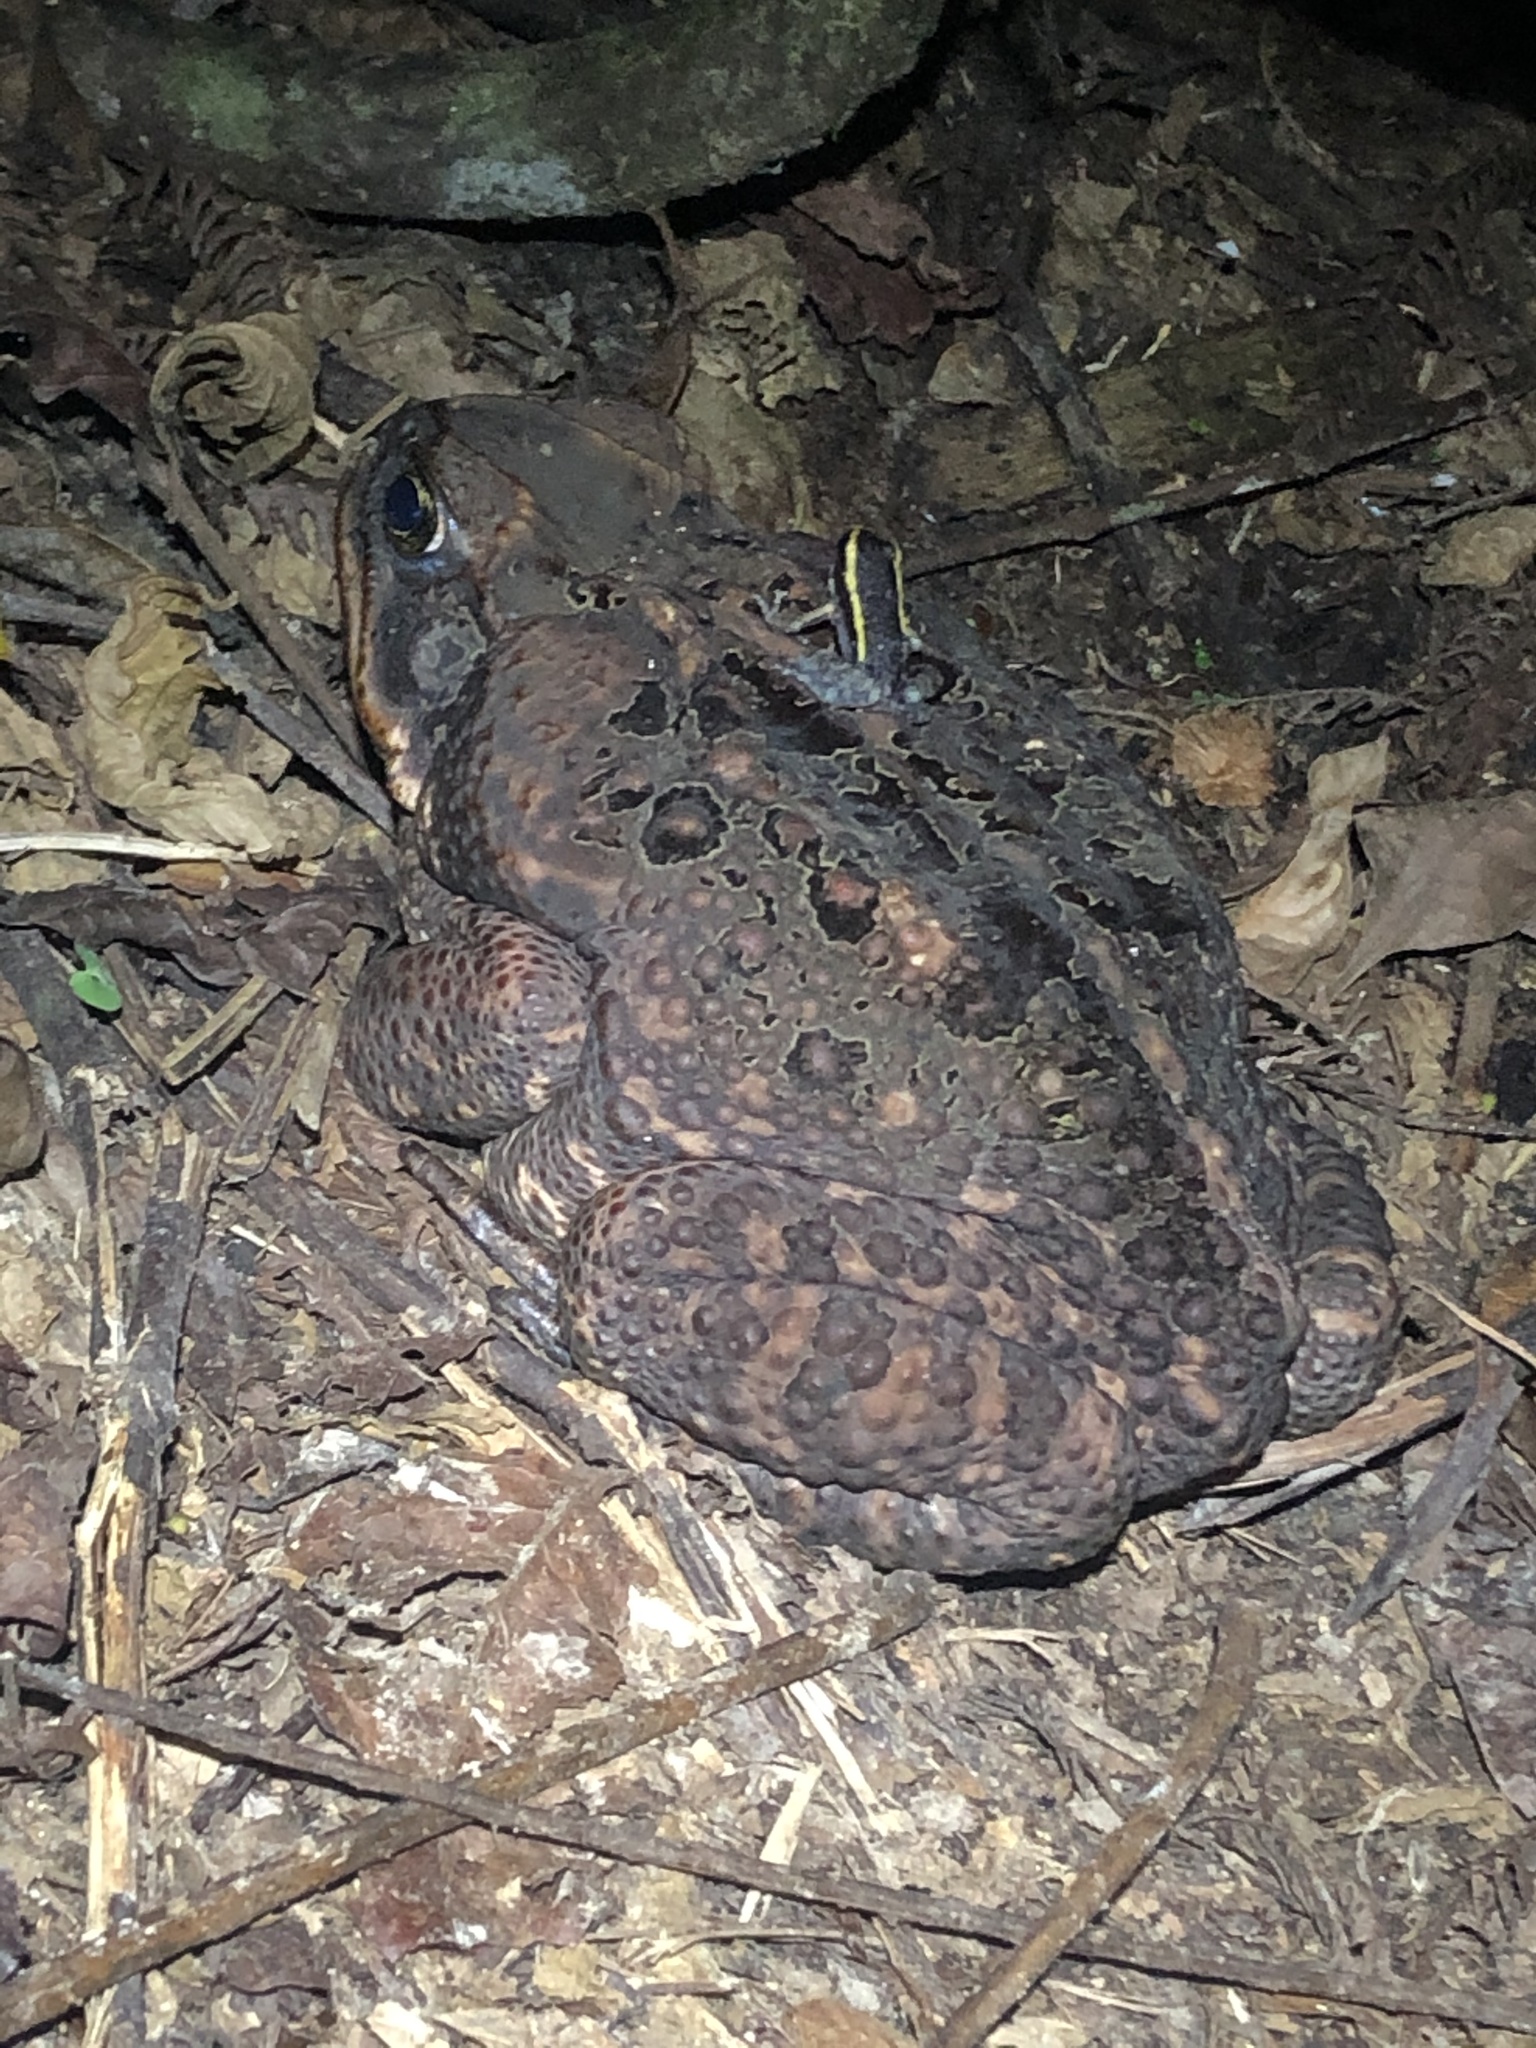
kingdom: Animalia
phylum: Chordata
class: Amphibia
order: Anura
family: Bufonidae
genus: Rhinella
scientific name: Rhinella marina
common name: Cane toad
